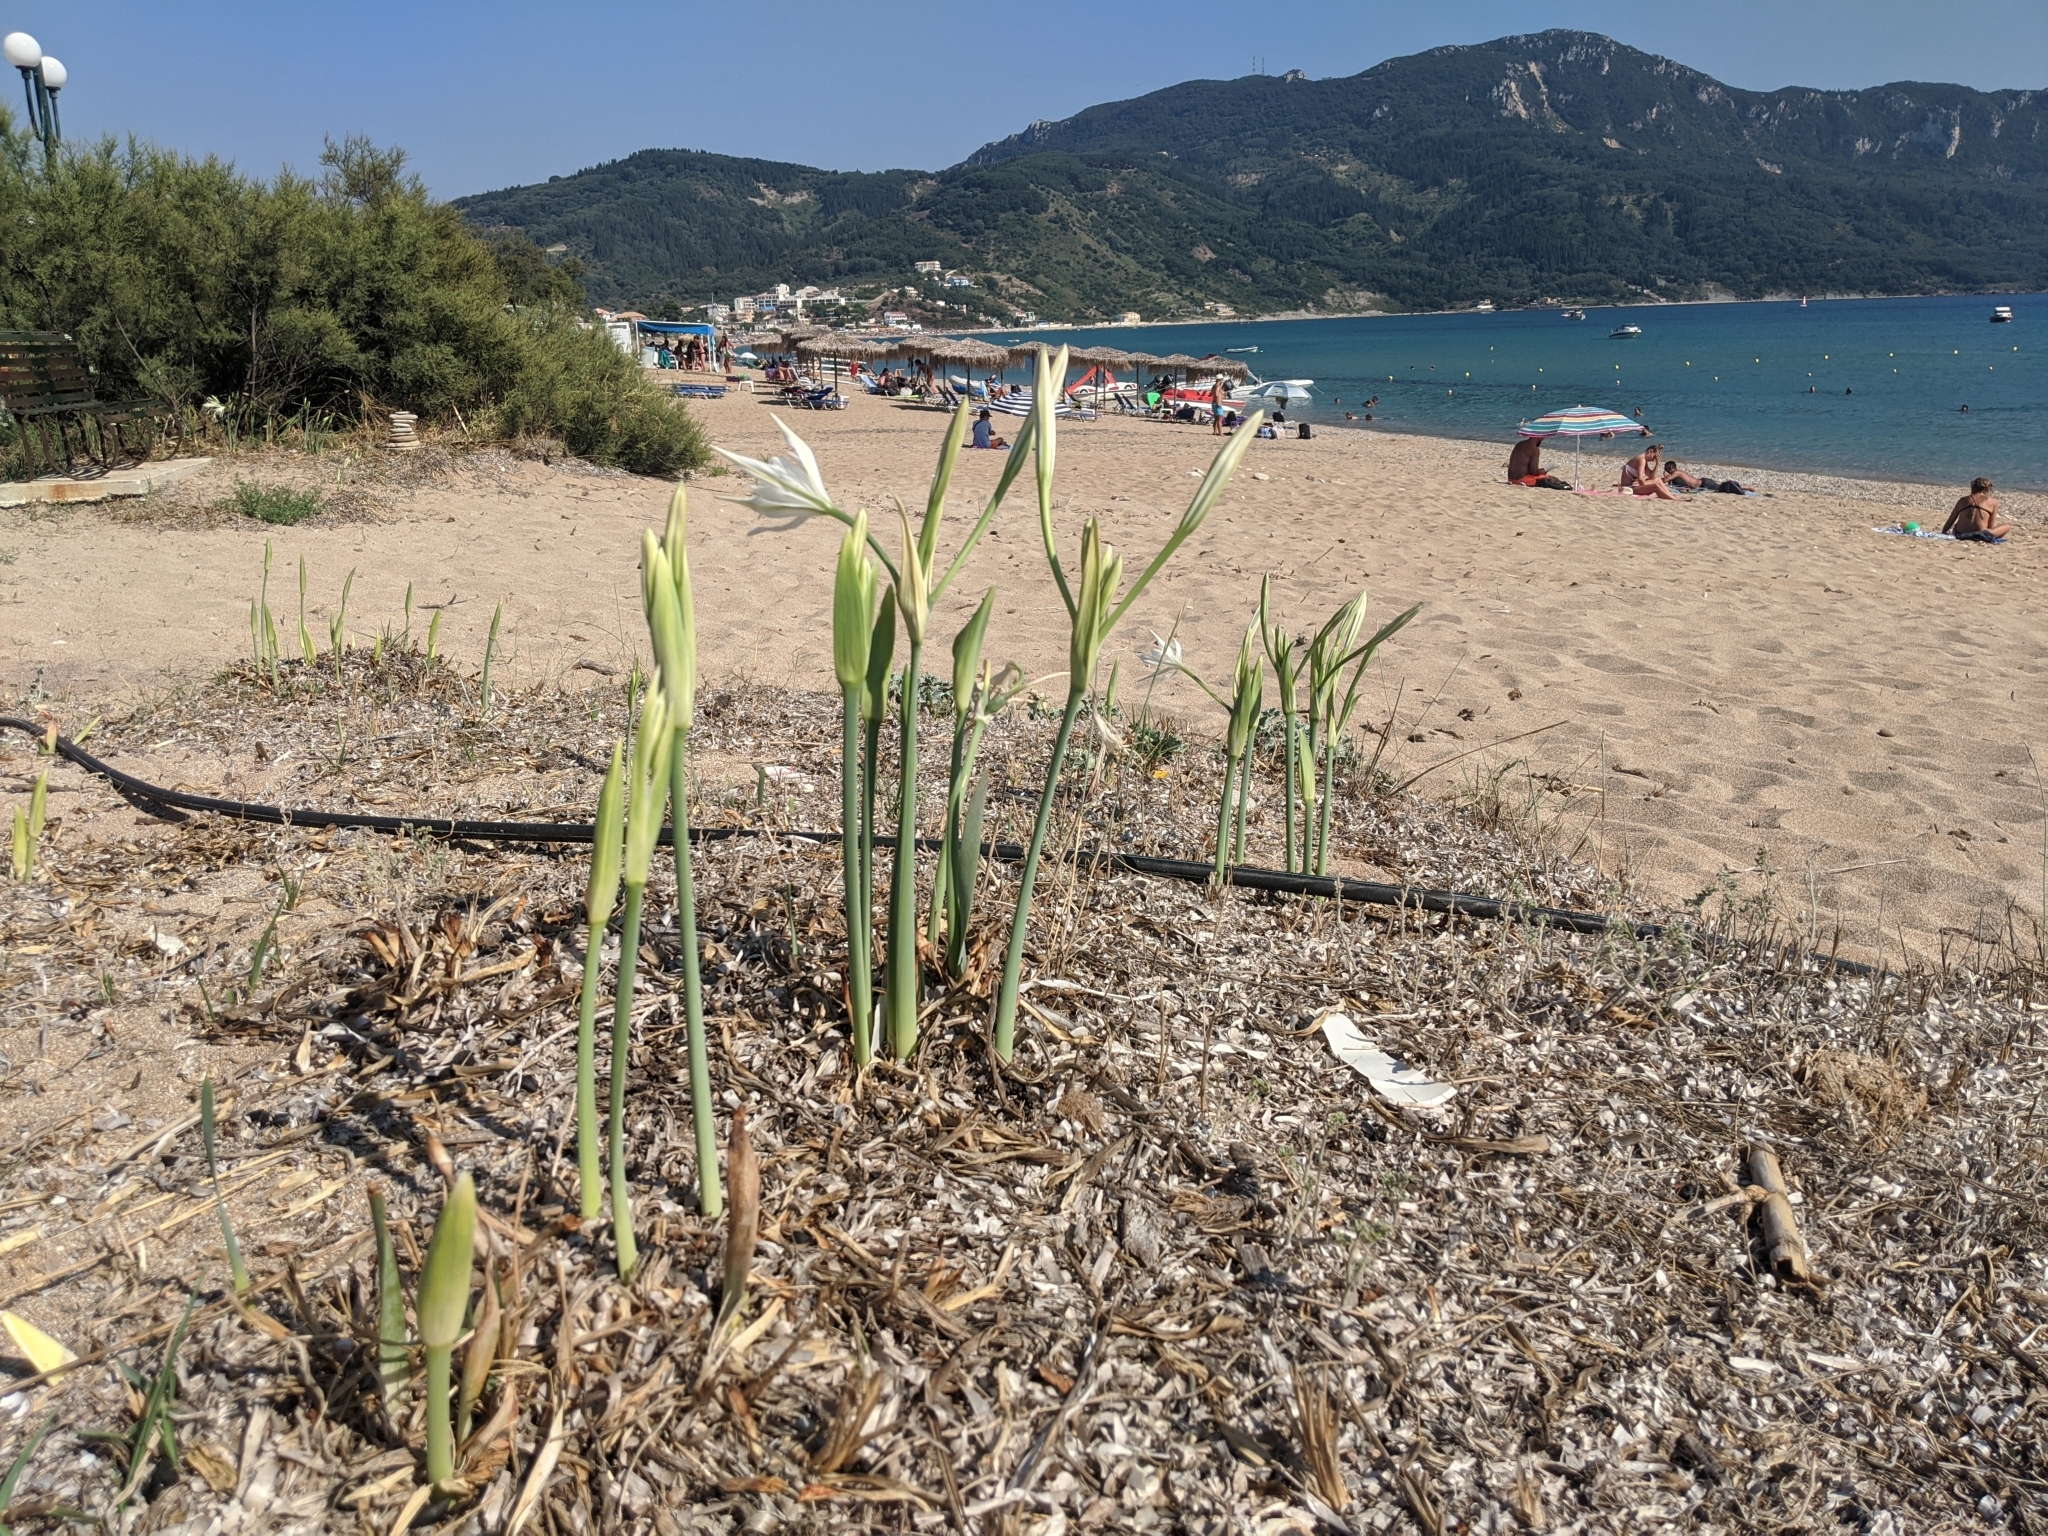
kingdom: Plantae
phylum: Tracheophyta
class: Liliopsida
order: Asparagales
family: Amaryllidaceae
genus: Pancratium
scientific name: Pancratium maritimum
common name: Sea-daffodil
